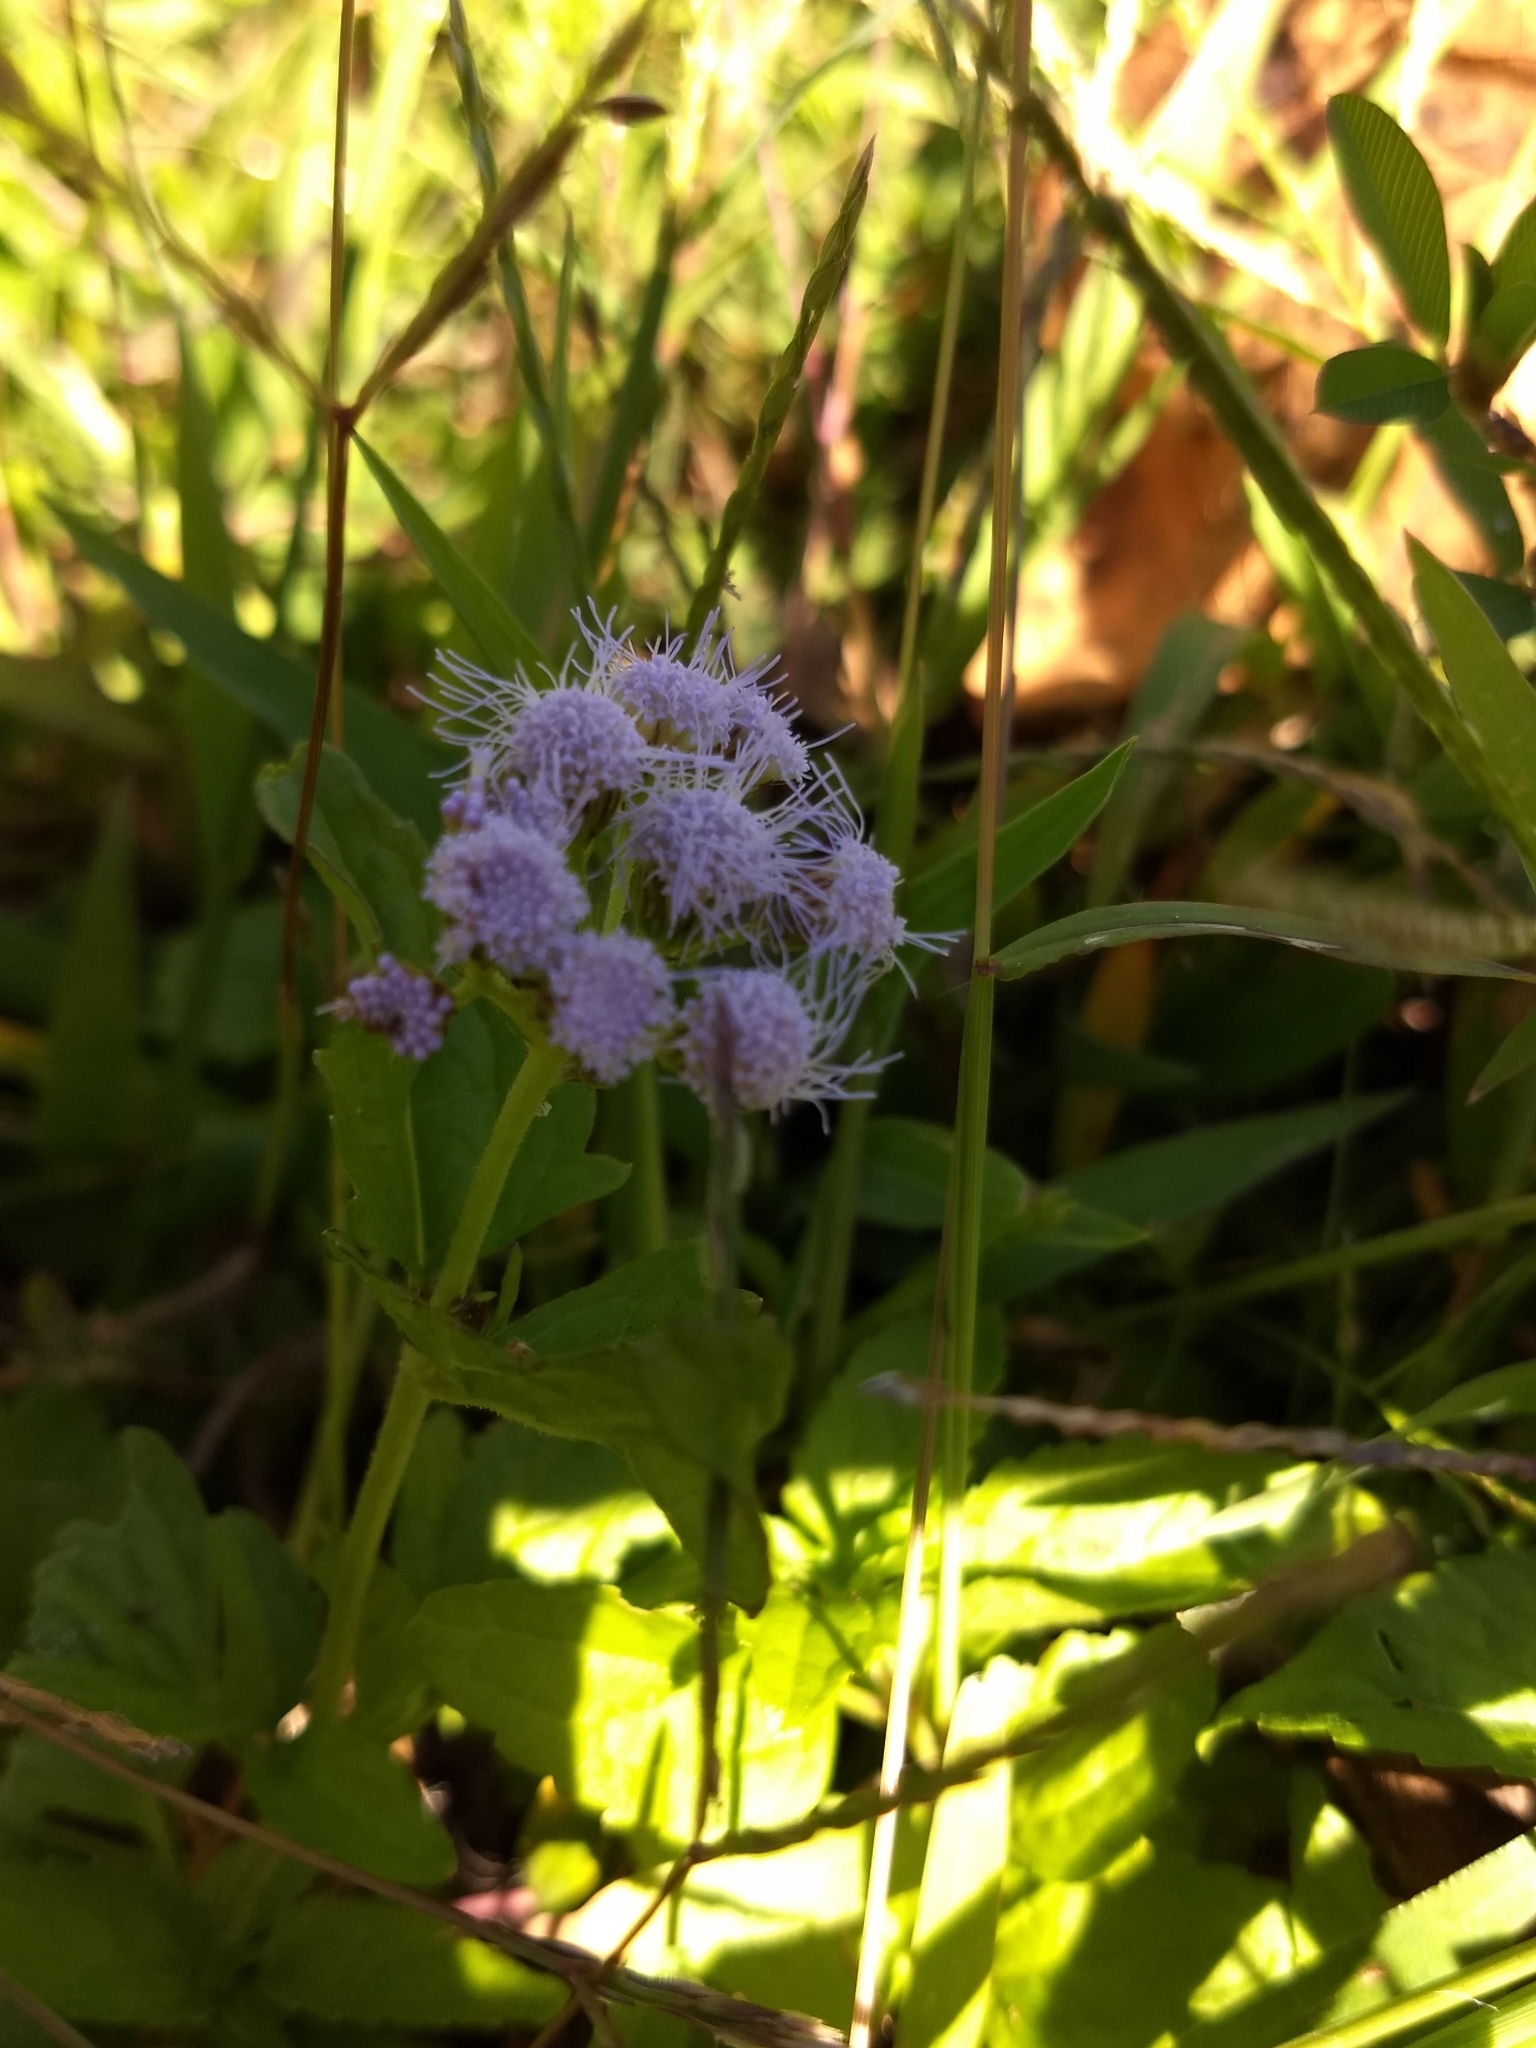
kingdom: Plantae
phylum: Tracheophyta
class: Magnoliopsida
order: Asterales
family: Asteraceae
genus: Conoclinium
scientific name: Conoclinium coelestinum
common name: Blue mistflower
